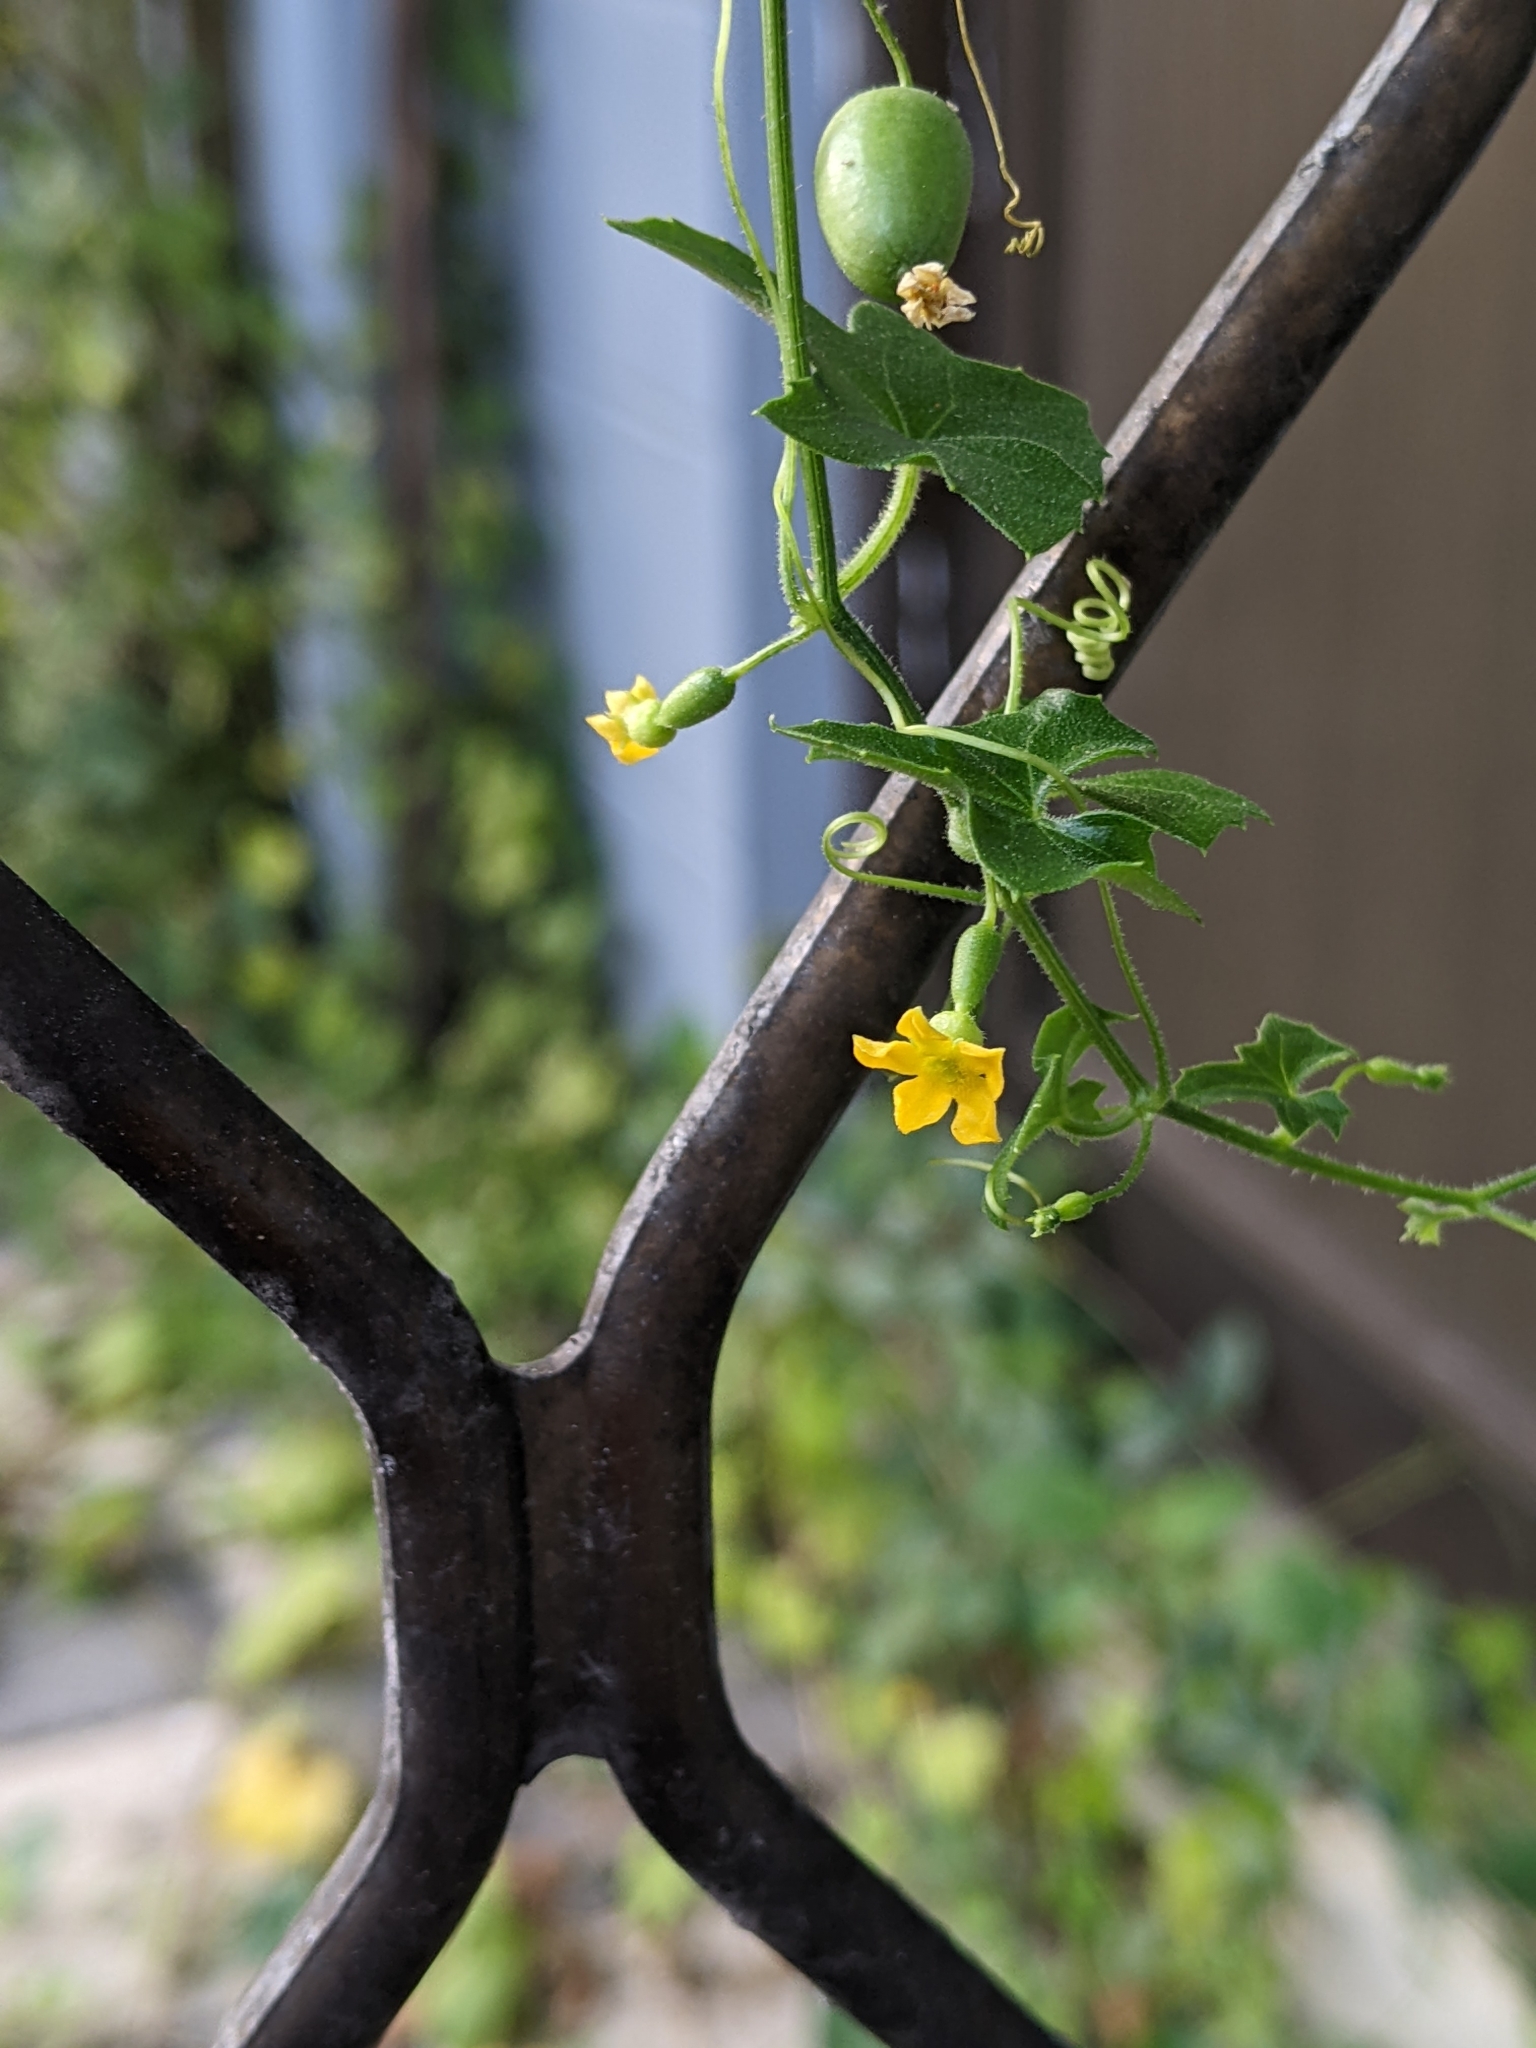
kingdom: Plantae
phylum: Tracheophyta
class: Magnoliopsida
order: Cucurbitales
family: Cucurbitaceae
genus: Melothria
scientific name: Melothria pendula
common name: Creeping-cucumber
